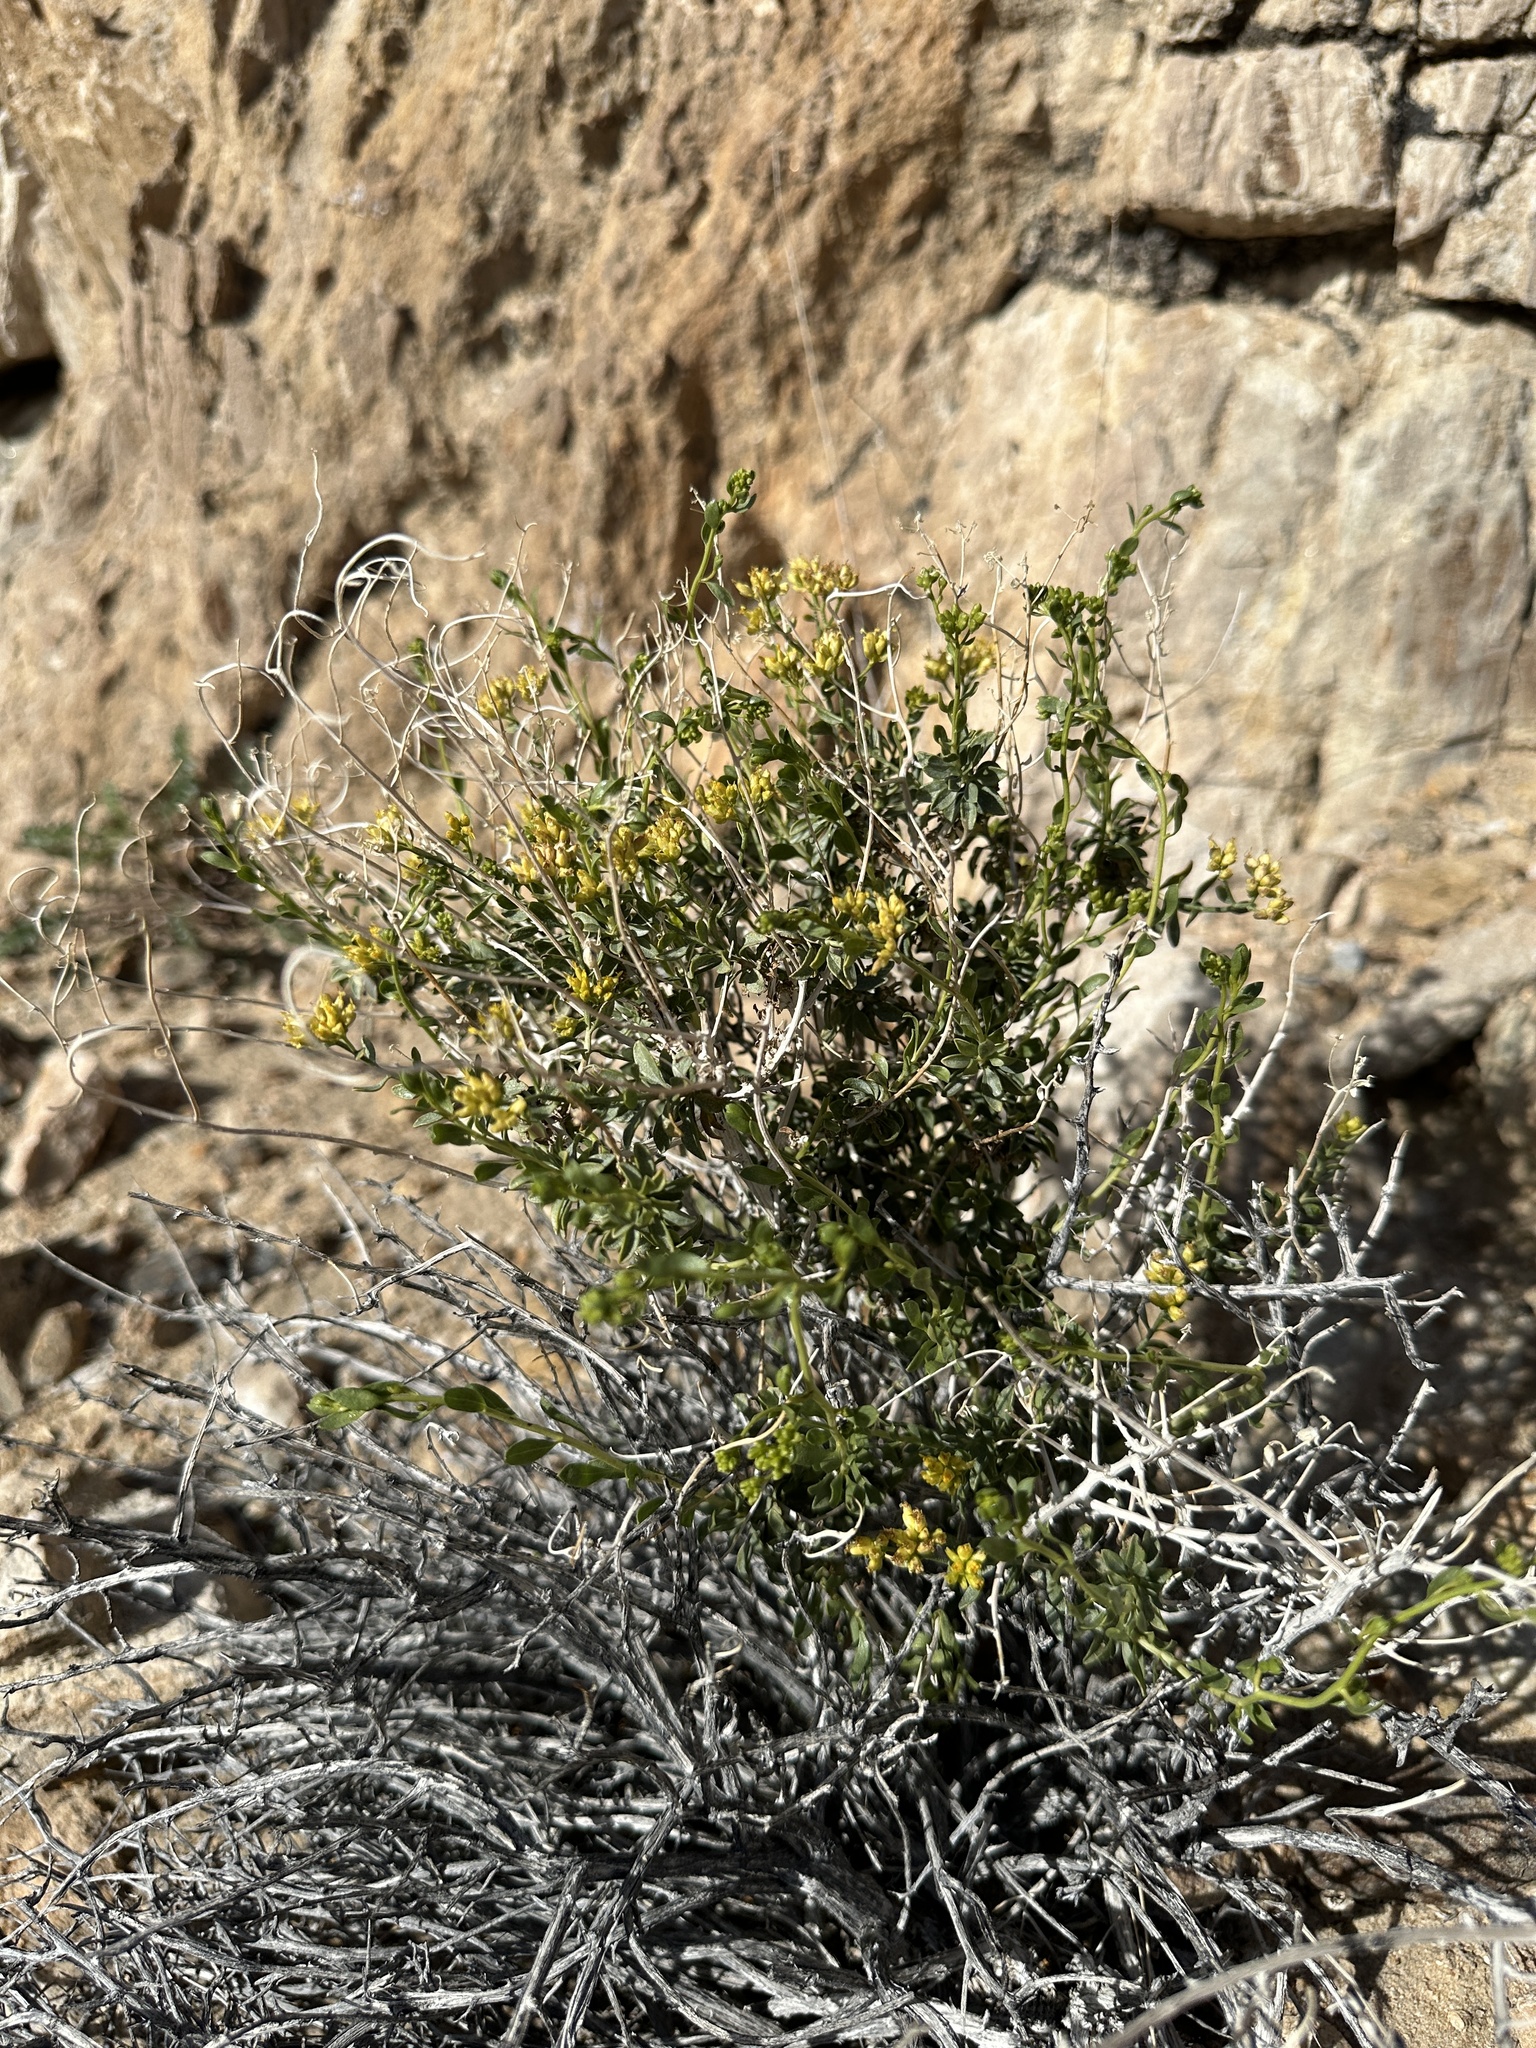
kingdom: Plantae
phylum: Tracheophyta
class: Magnoliopsida
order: Asterales
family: Asteraceae
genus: Amphipappus
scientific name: Amphipappus fremontii
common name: Fremont's chaffbush
